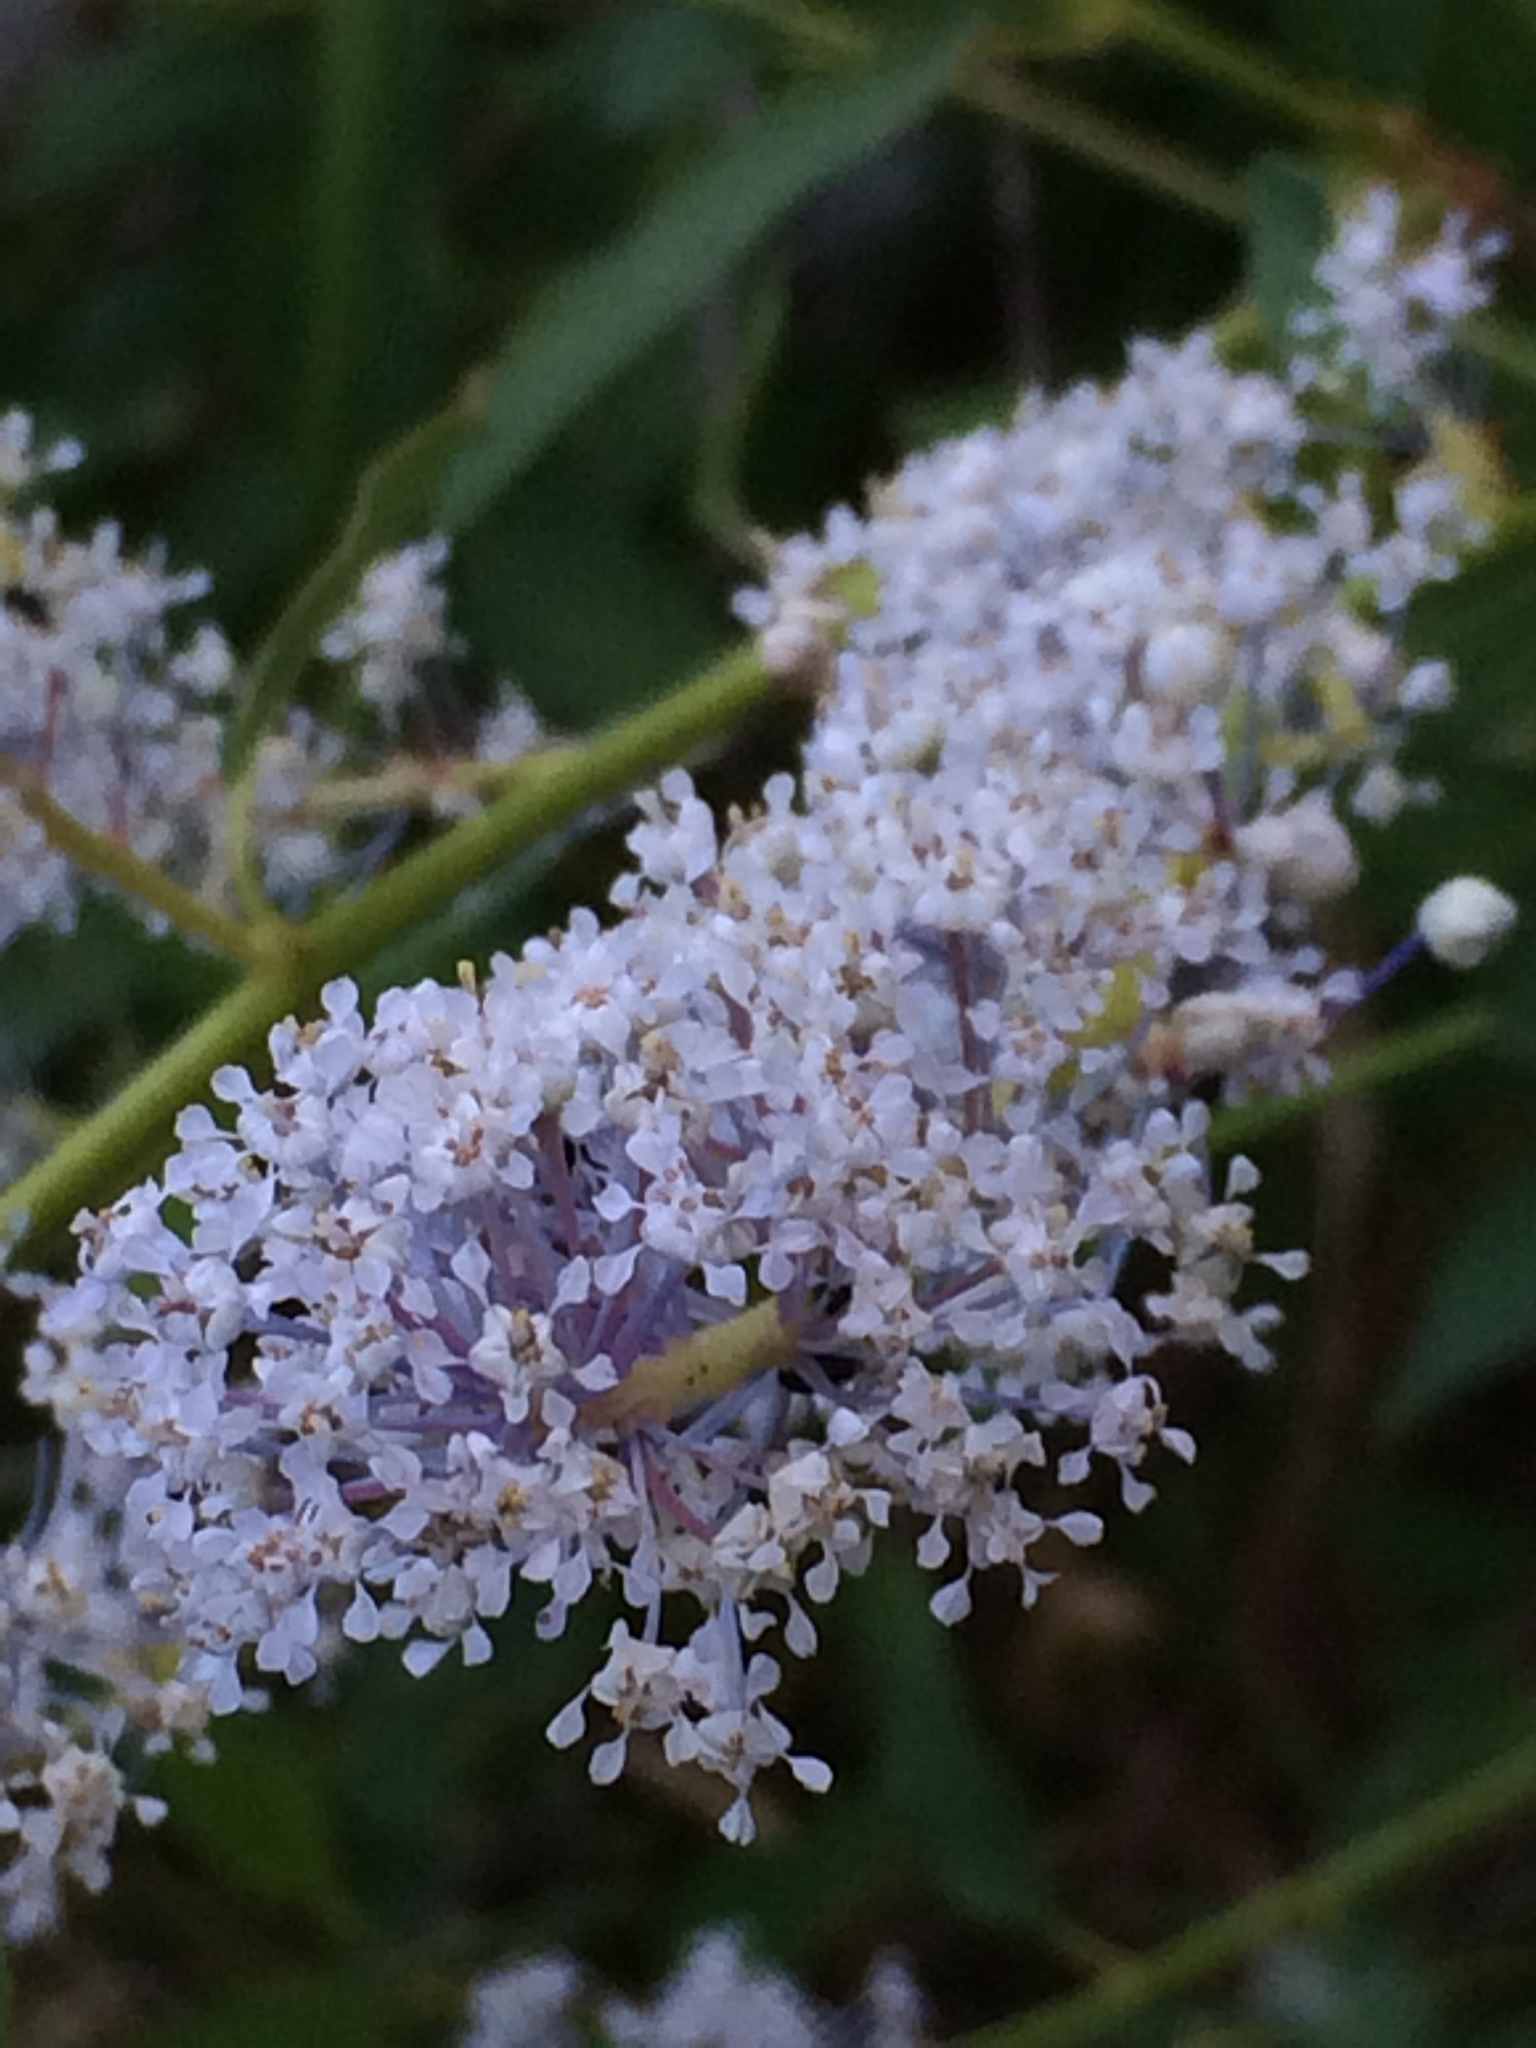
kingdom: Plantae
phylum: Tracheophyta
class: Magnoliopsida
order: Rosales
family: Rhamnaceae
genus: Ceanothus
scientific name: Ceanothus integerrimus
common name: Deerbrush ceanothus
